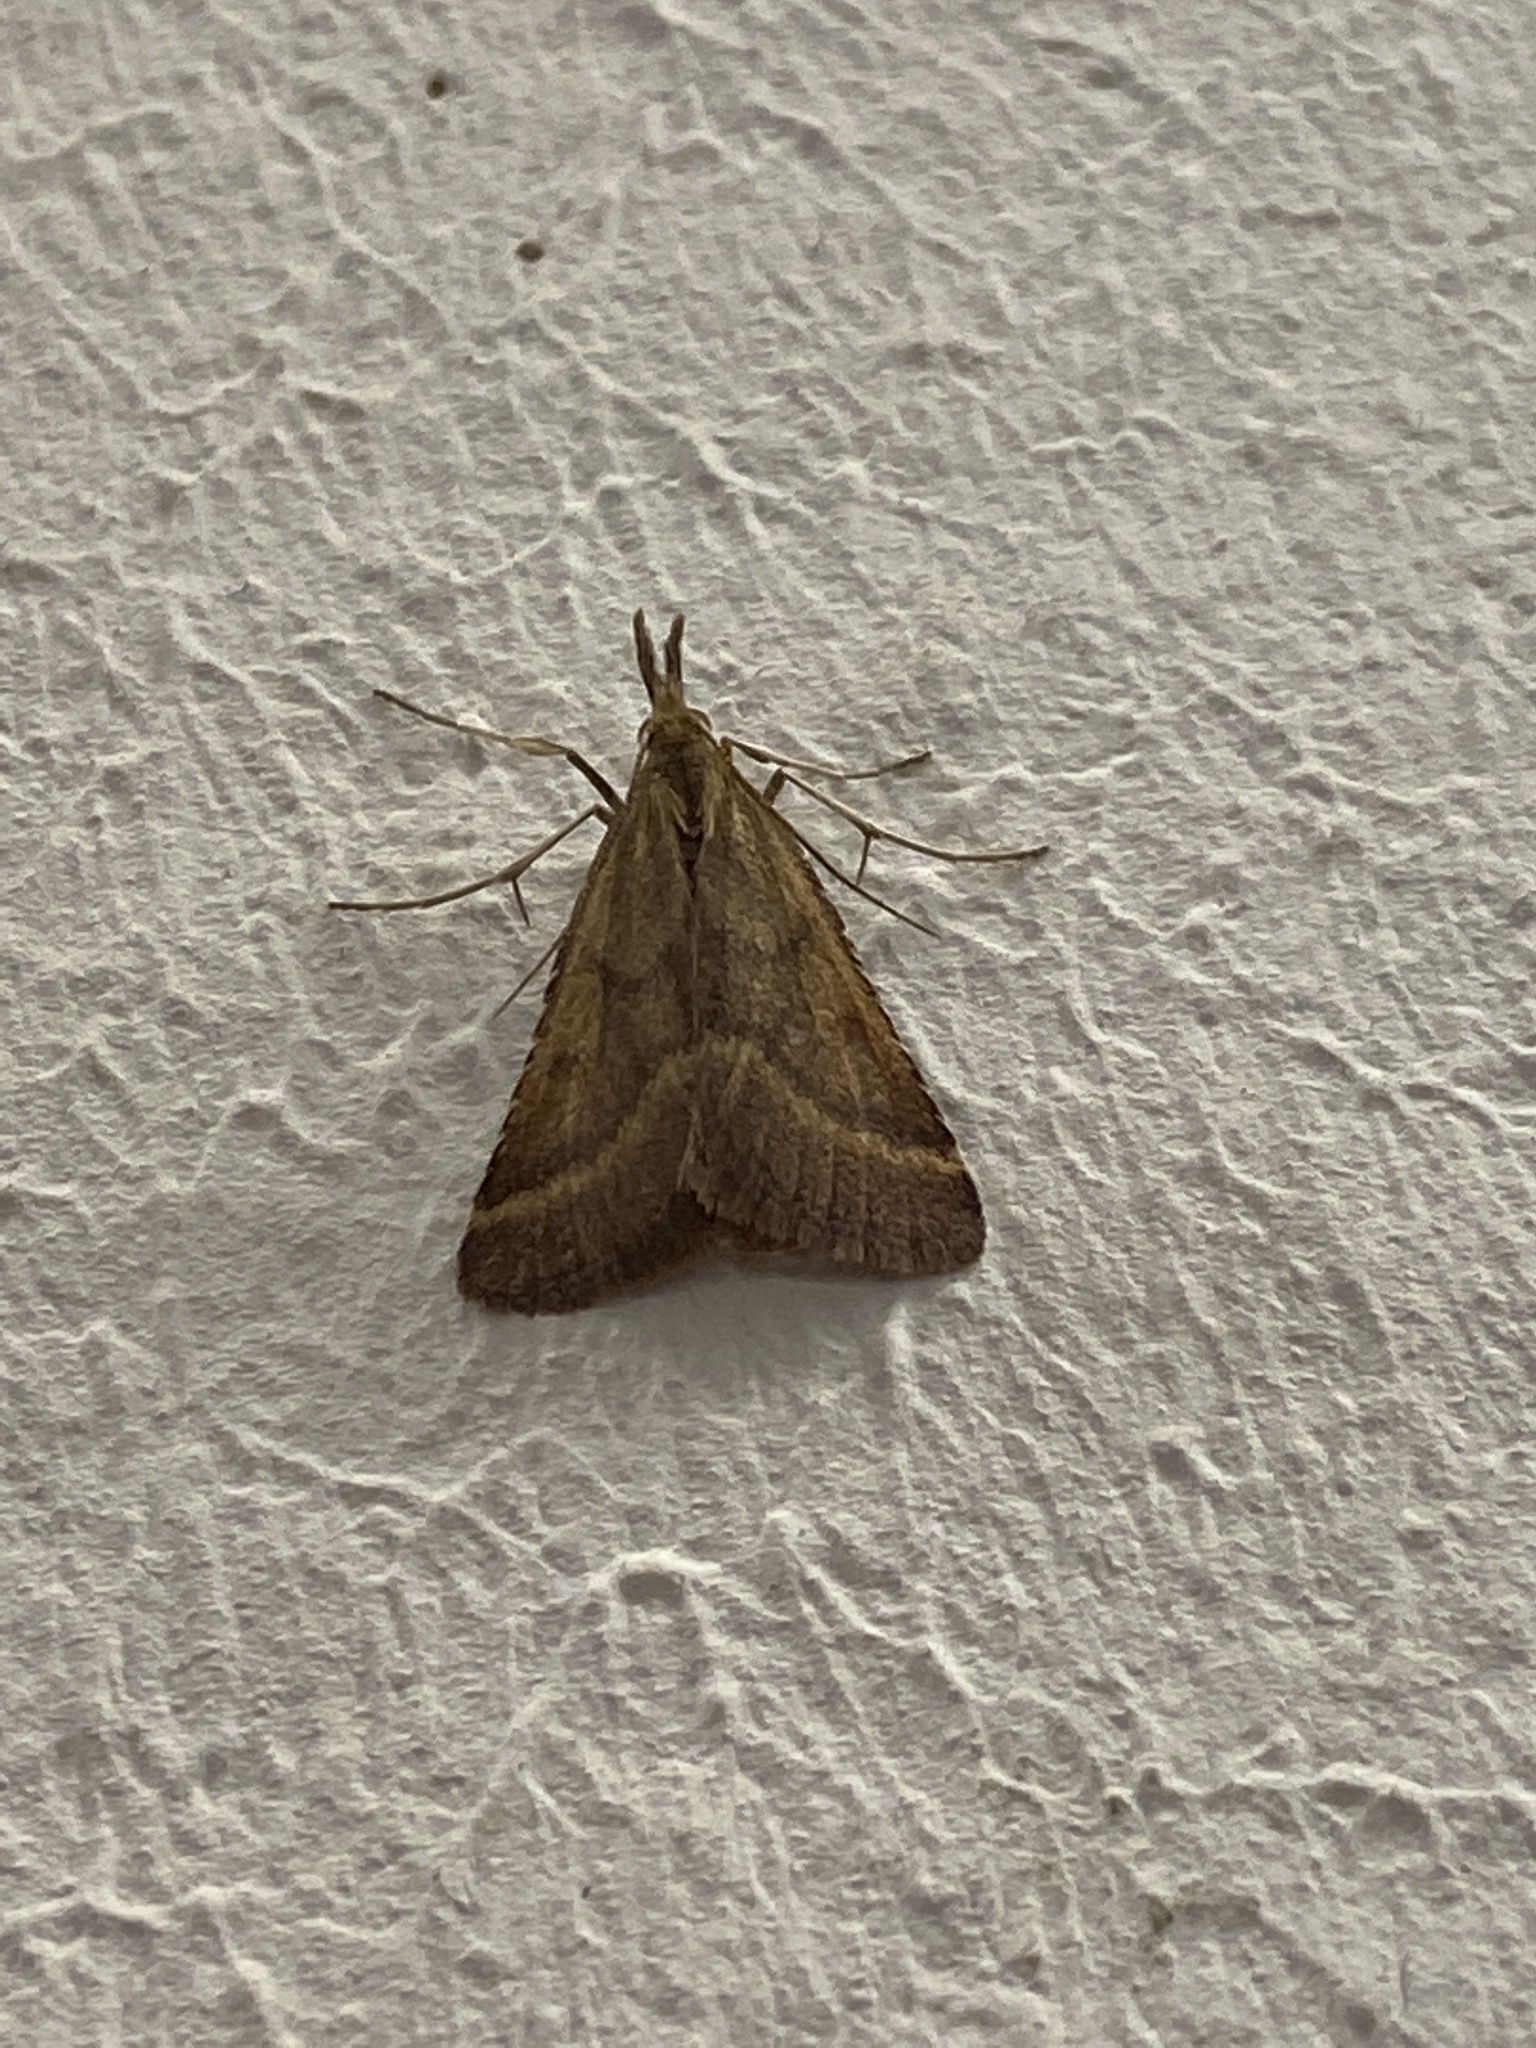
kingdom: Animalia
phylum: Arthropoda
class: Insecta
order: Lepidoptera
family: Pyralidae
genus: Synaphe
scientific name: Synaphe punctalis
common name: Long-legged tabby
